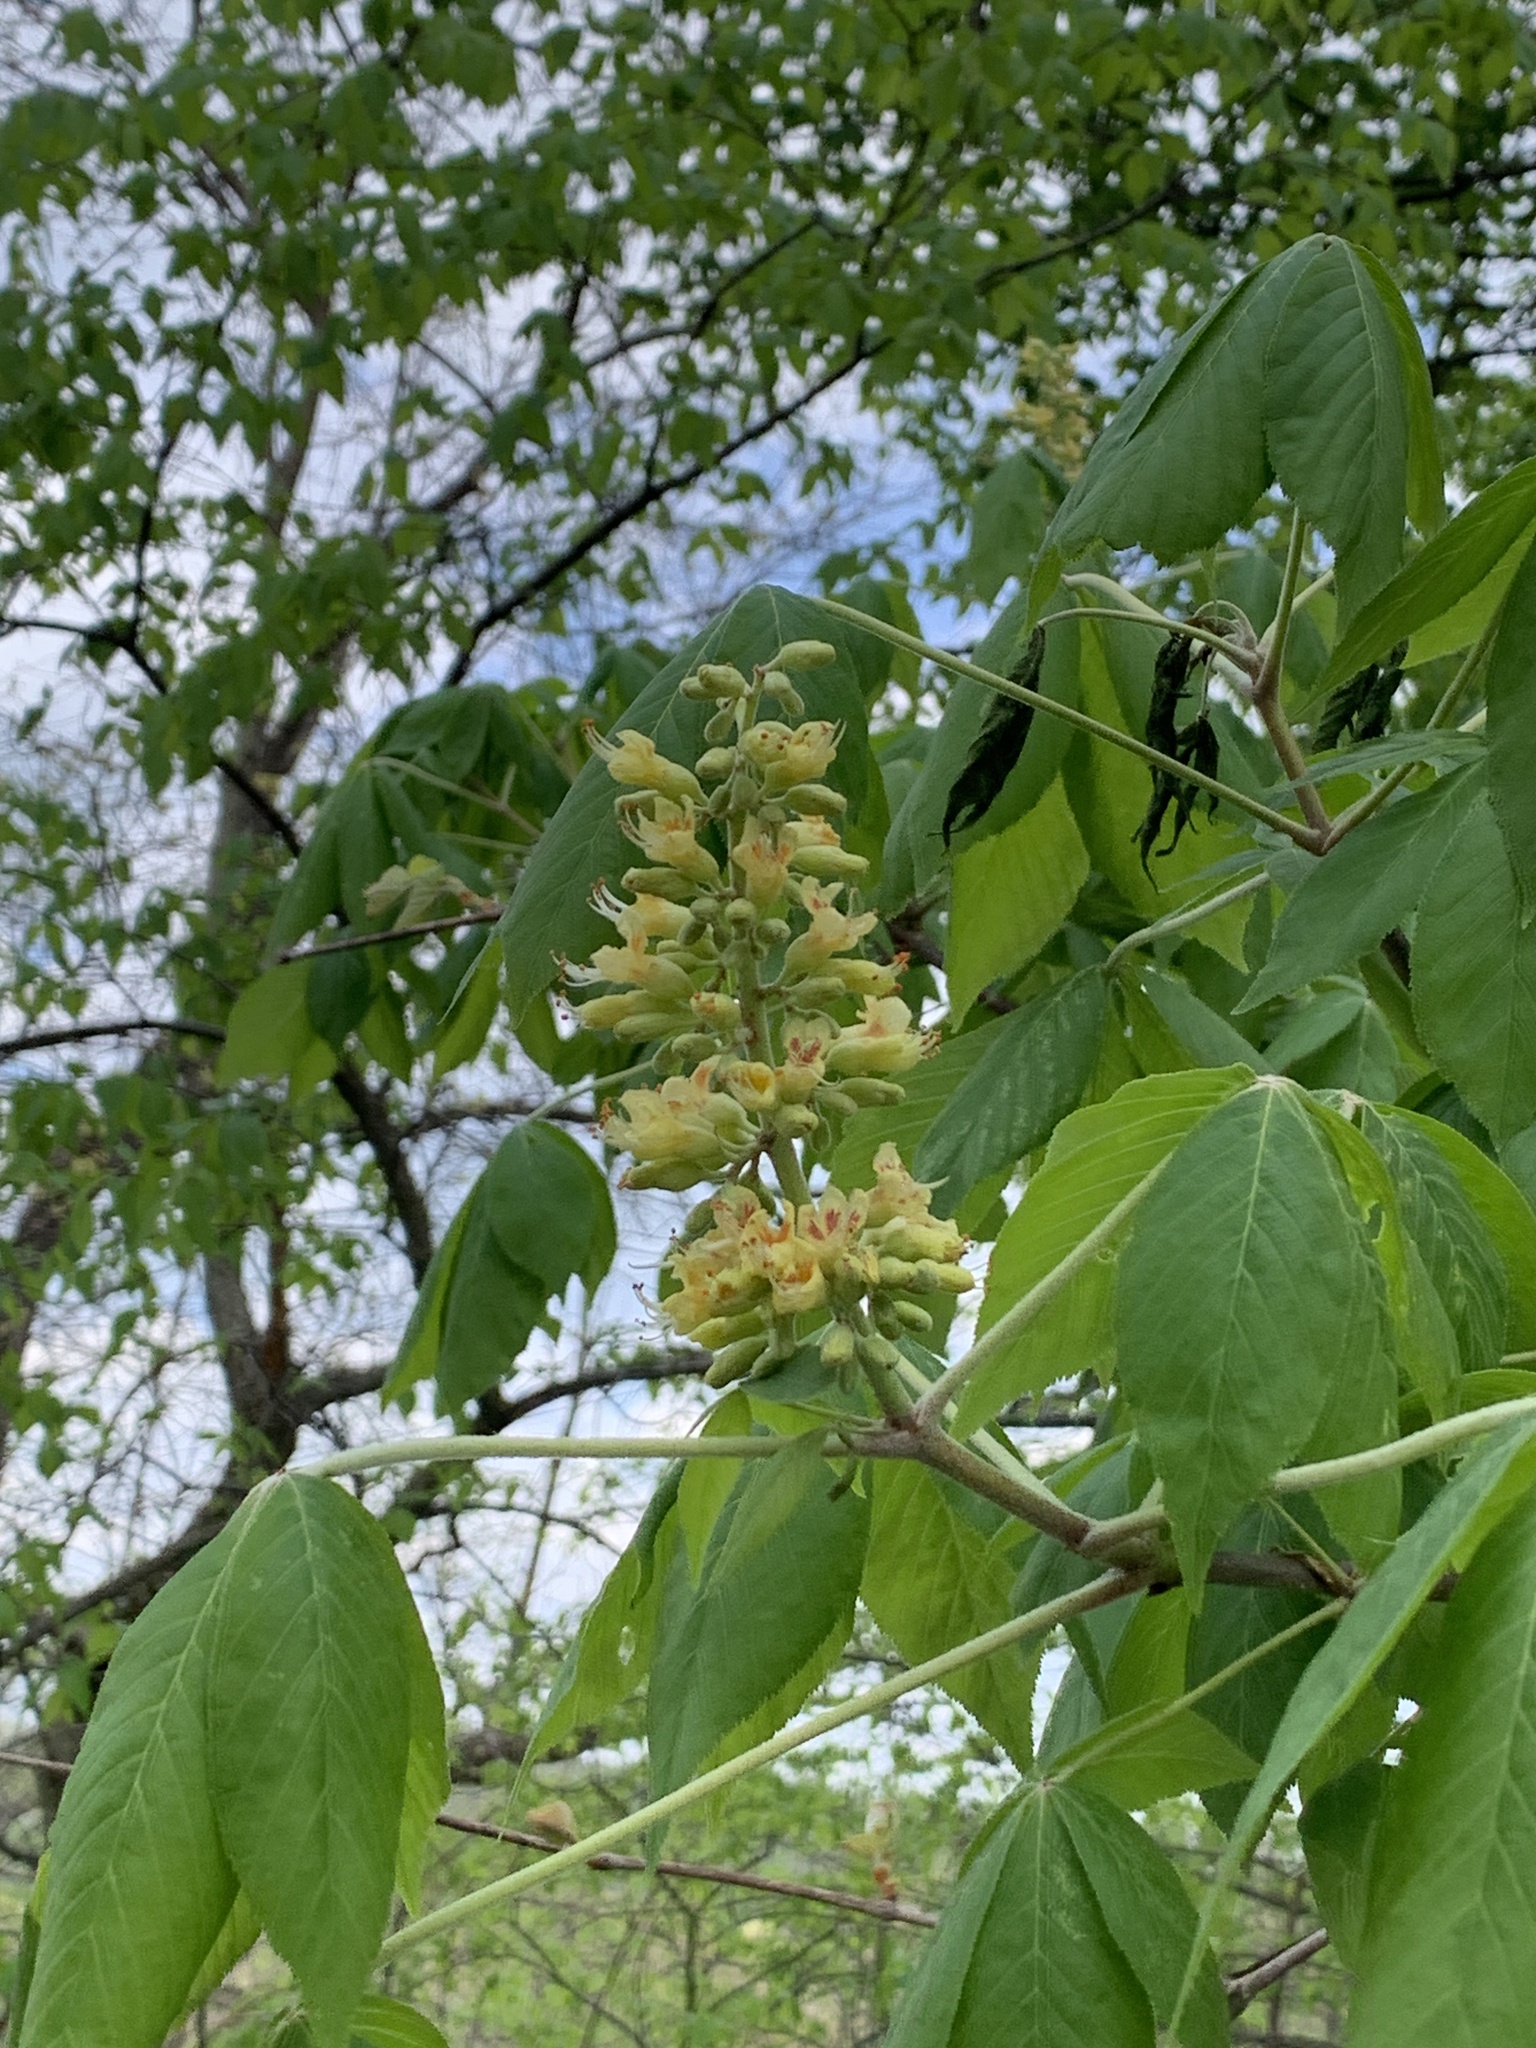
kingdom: Plantae
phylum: Tracheophyta
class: Magnoliopsida
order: Sapindales
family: Sapindaceae
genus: Aesculus
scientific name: Aesculus glabra
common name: Ohio buckeye
